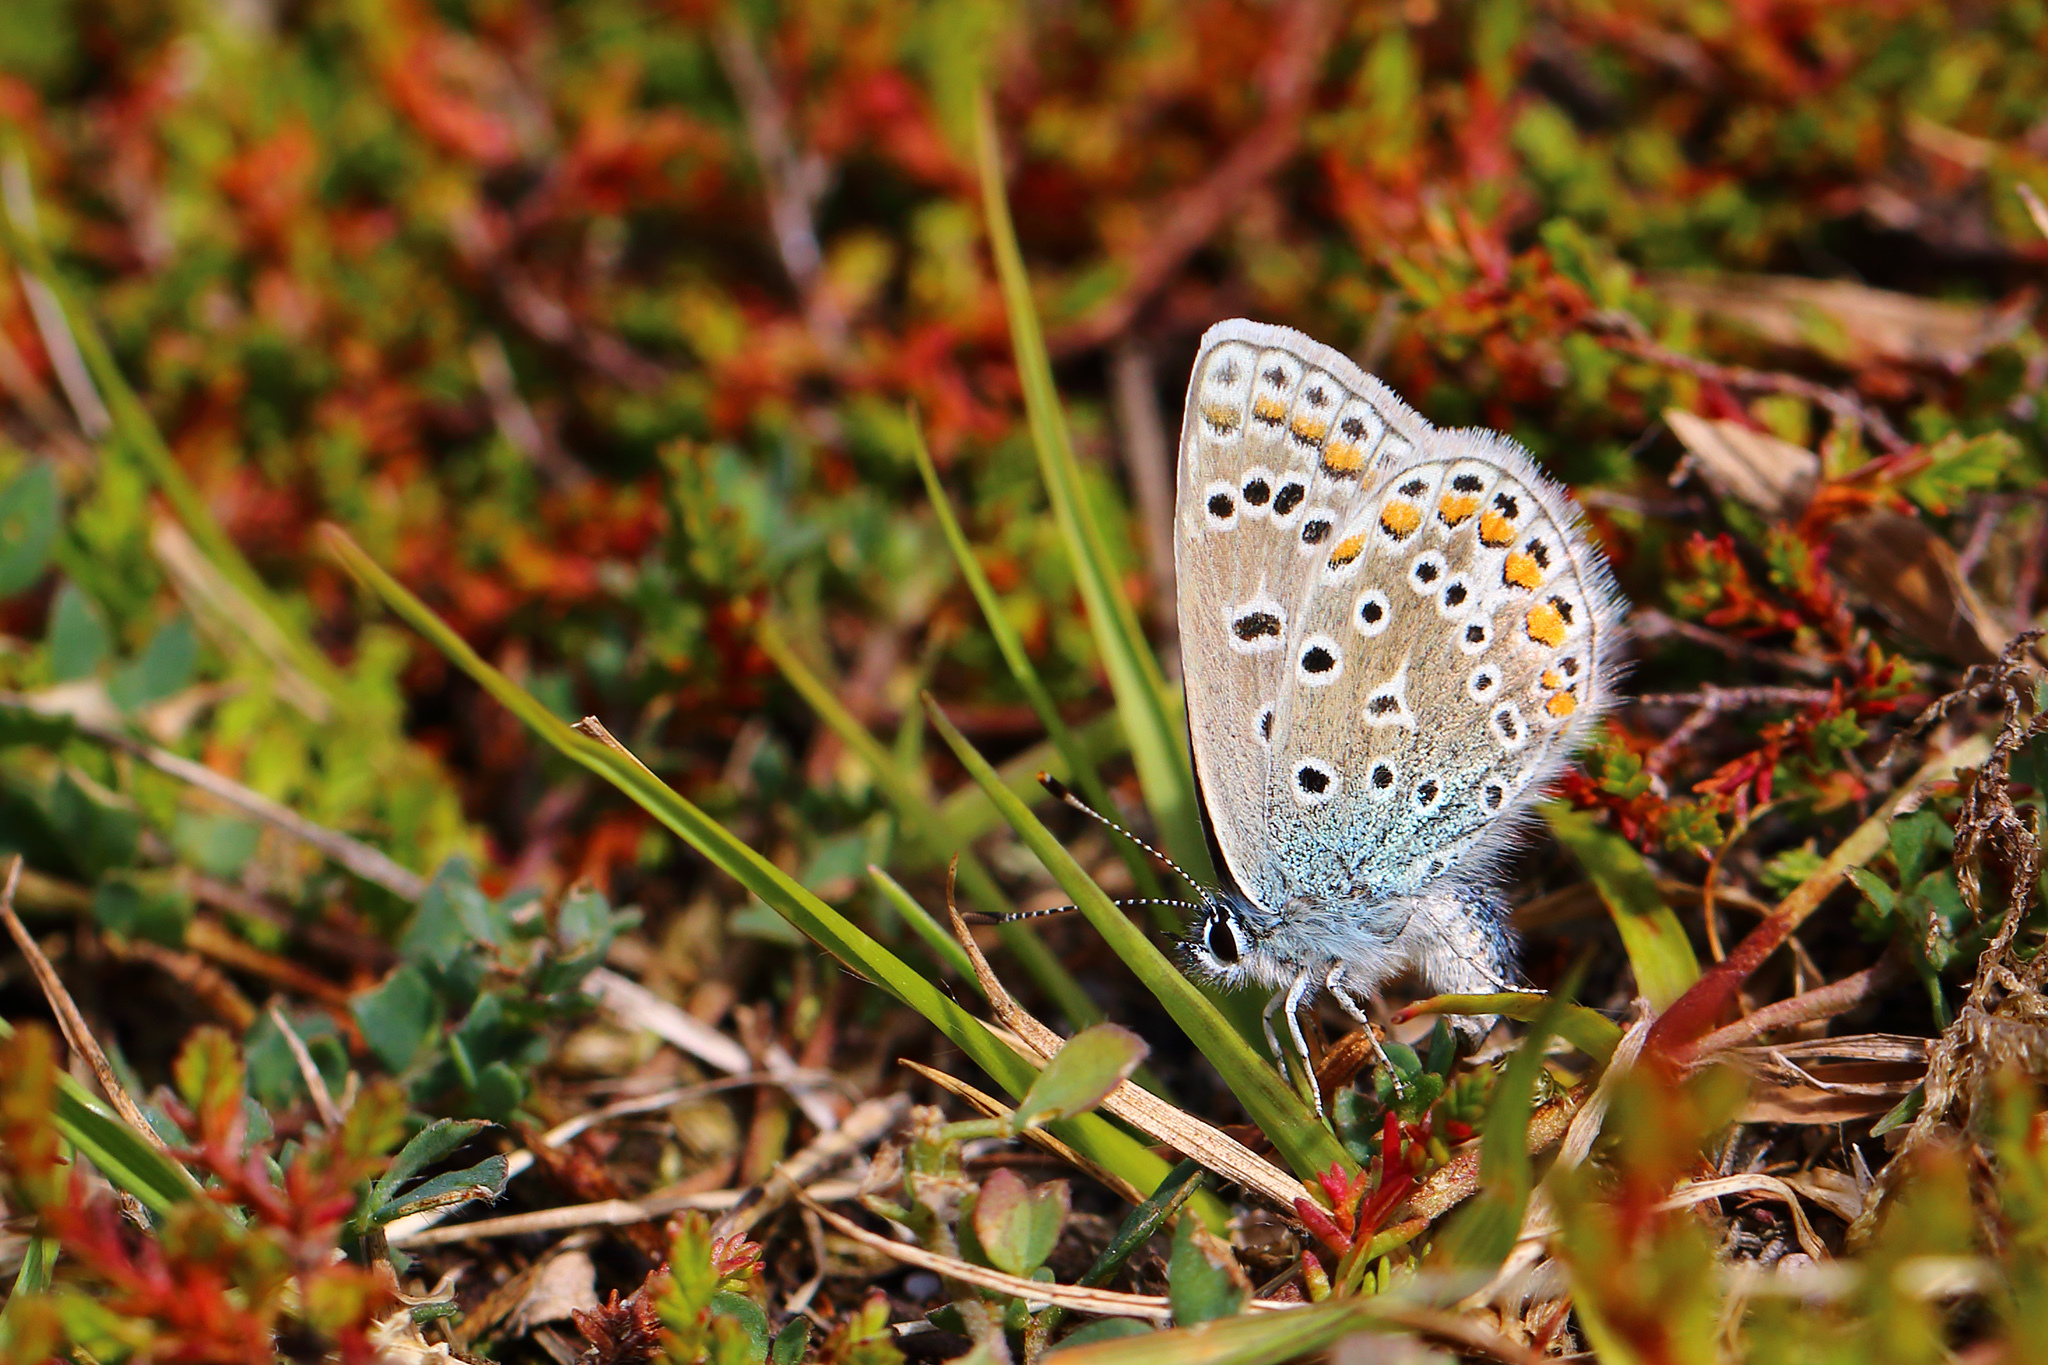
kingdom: Animalia
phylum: Arthropoda
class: Insecta
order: Lepidoptera
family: Lycaenidae
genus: Polyommatus
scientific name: Polyommatus icarus
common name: Common blue
